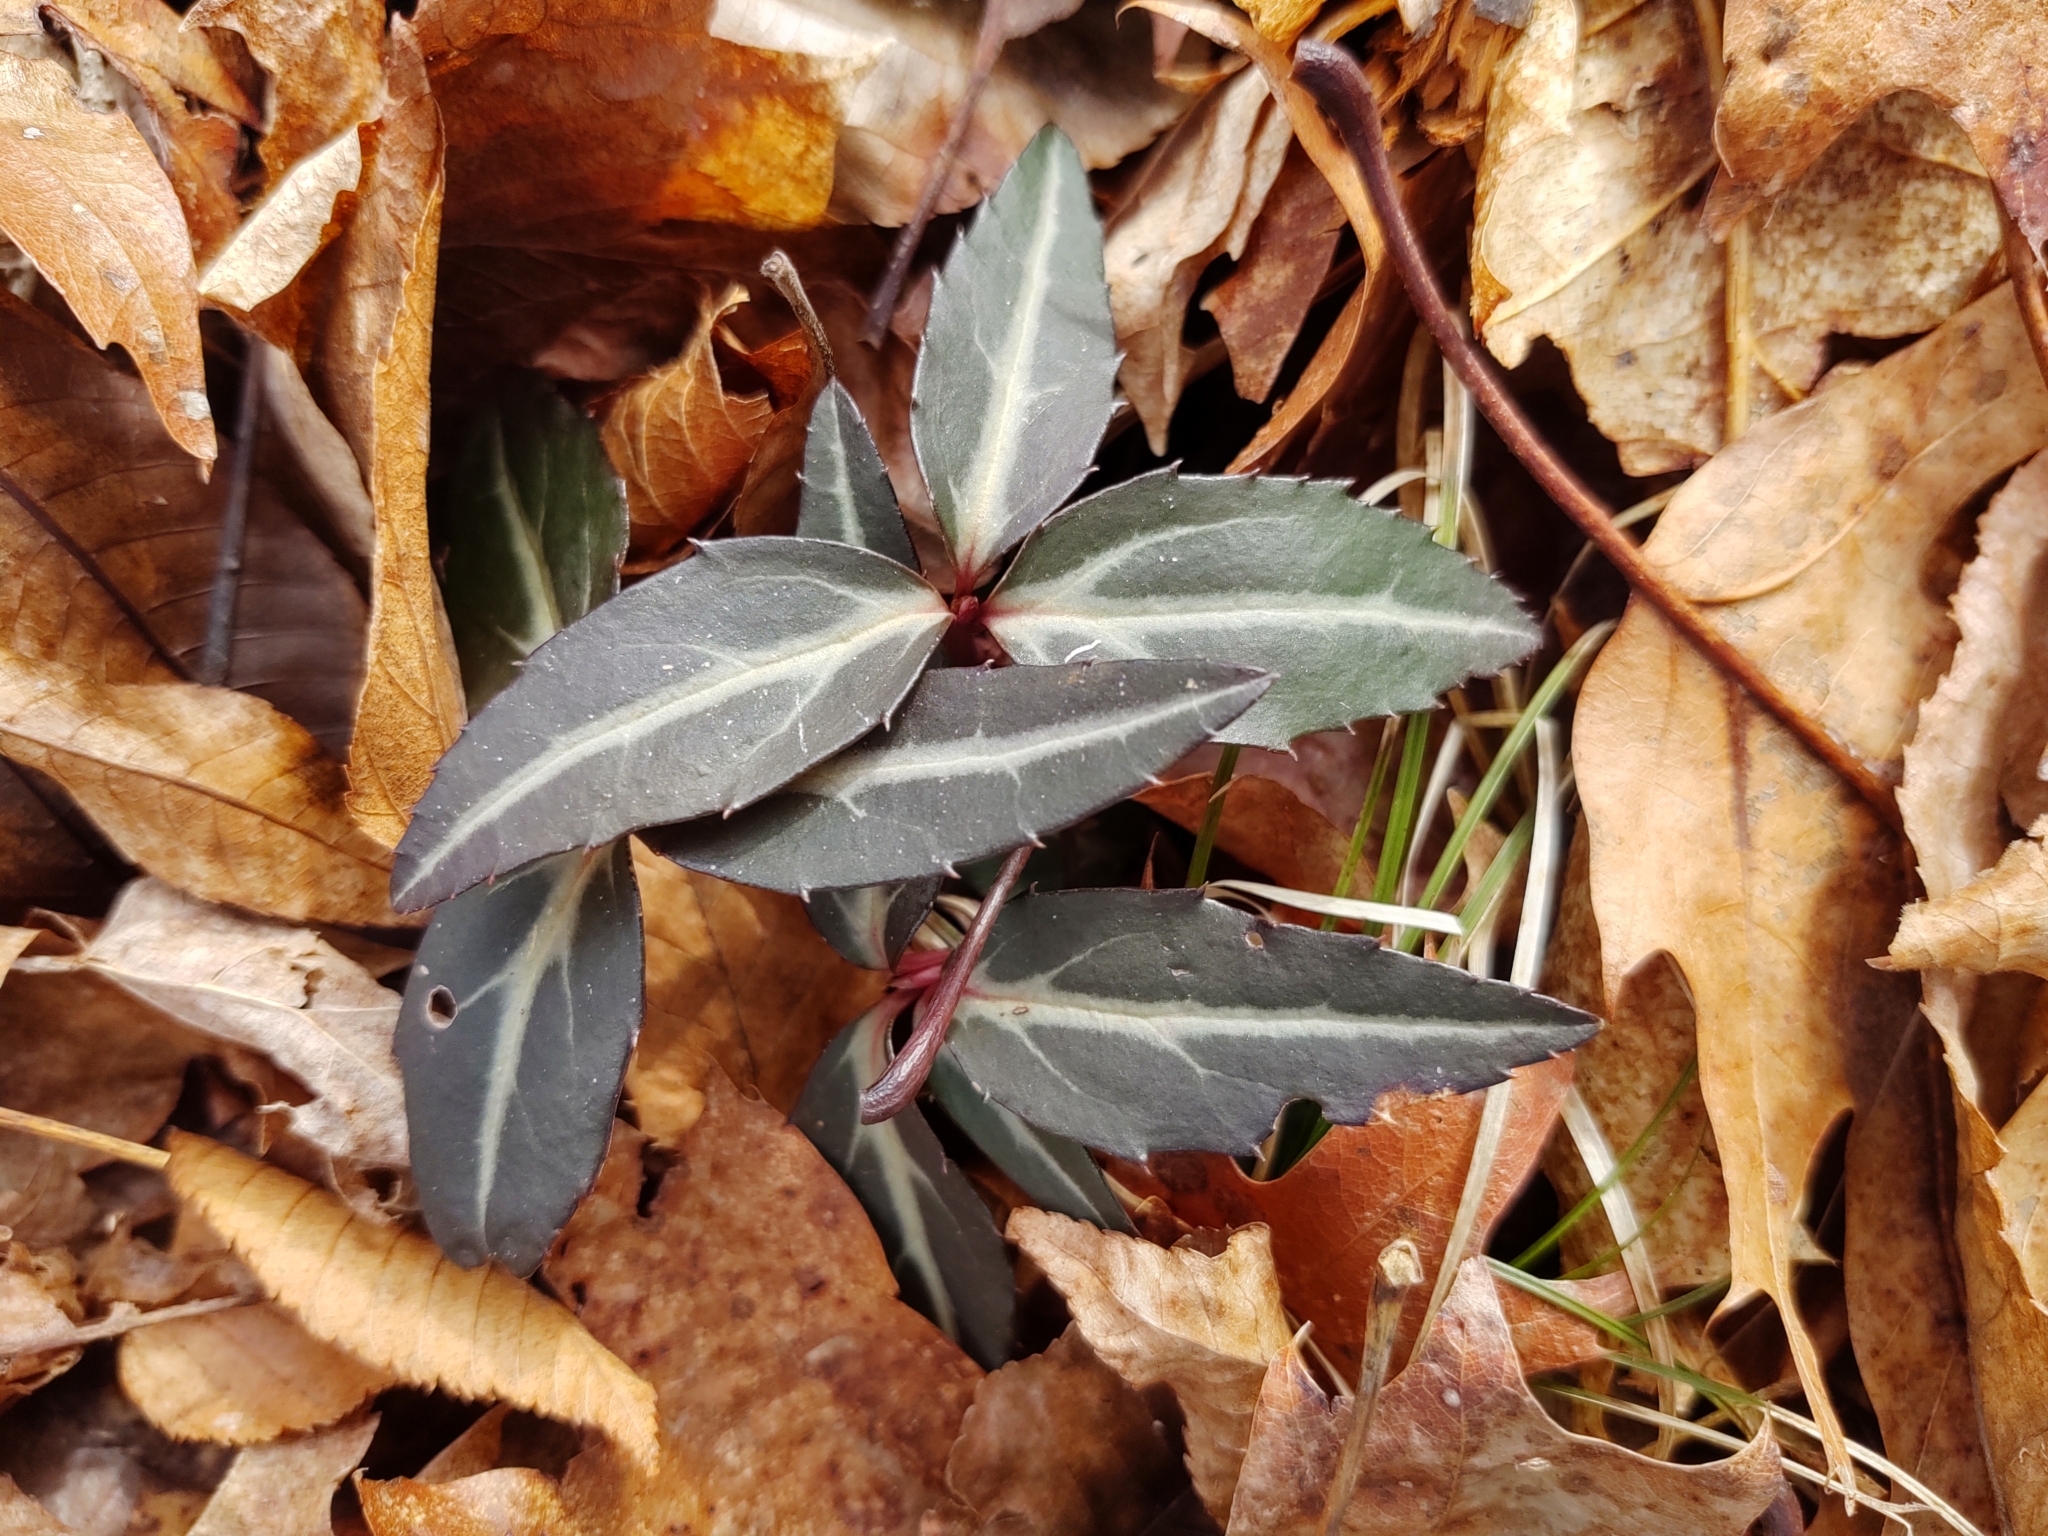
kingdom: Plantae
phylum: Tracheophyta
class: Magnoliopsida
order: Ericales
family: Ericaceae
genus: Chimaphila
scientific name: Chimaphila maculata
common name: Spotted pipsissewa
